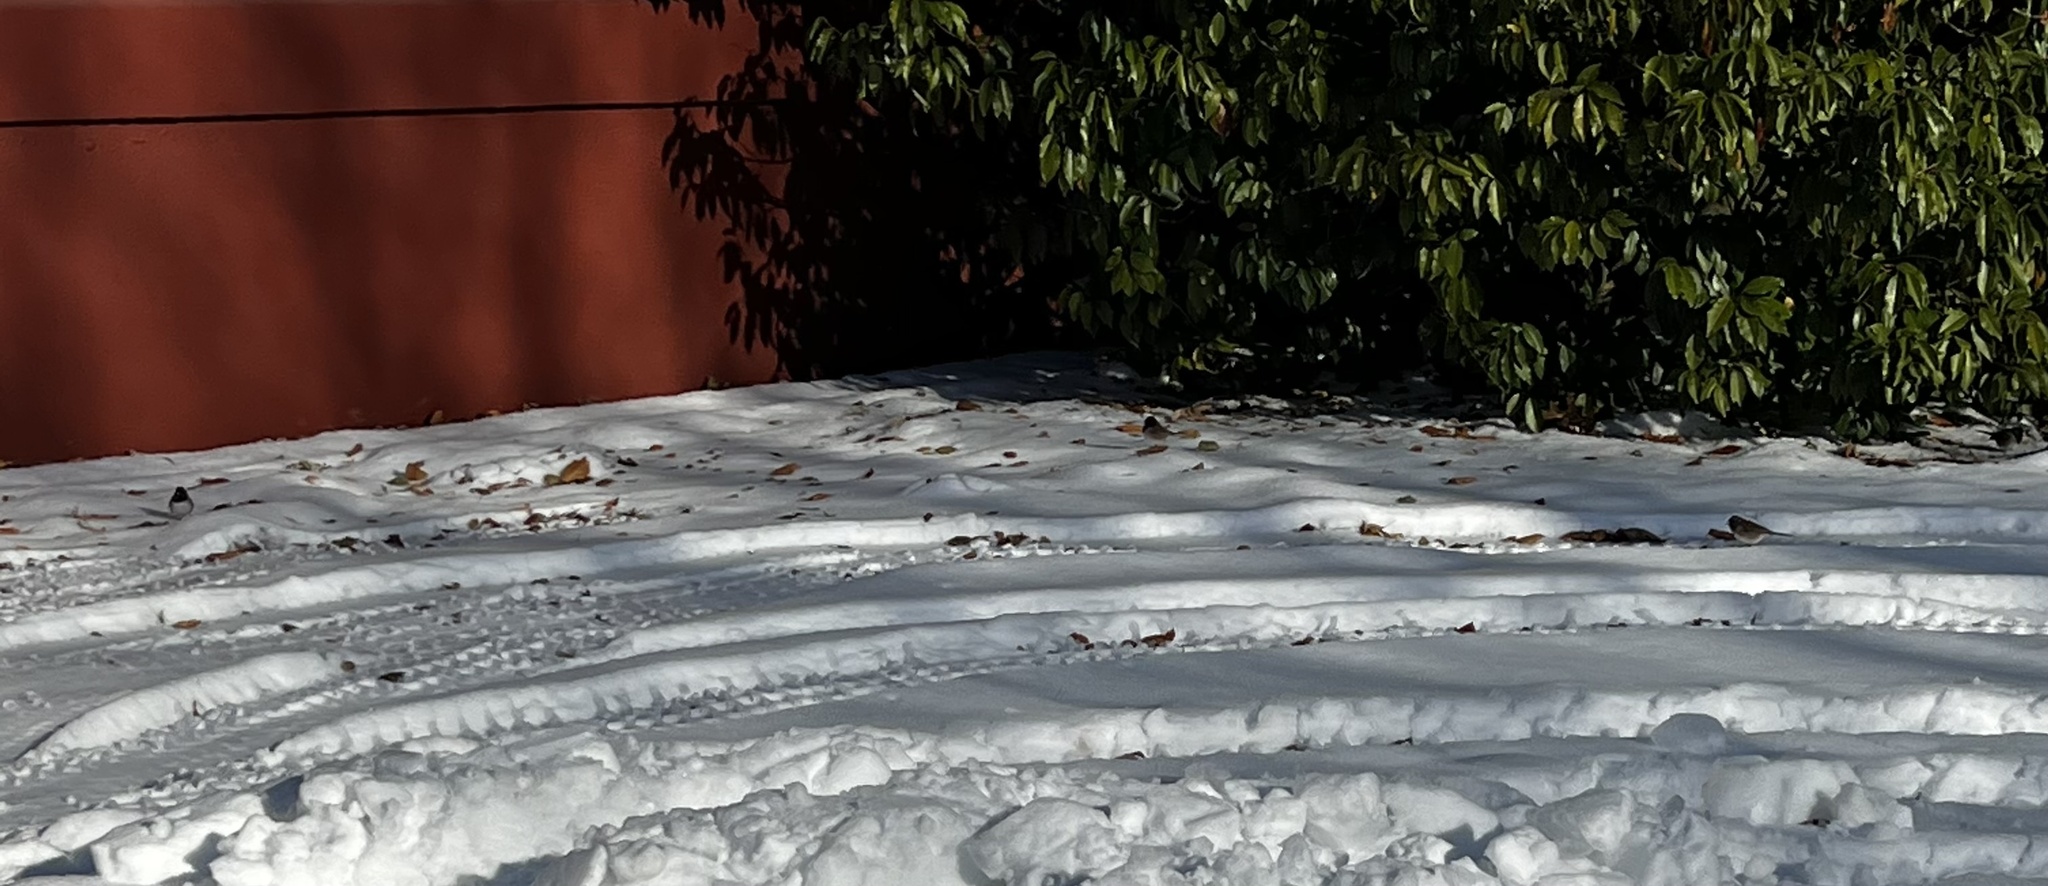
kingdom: Animalia
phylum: Chordata
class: Aves
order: Passeriformes
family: Passerellidae
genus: Junco
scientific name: Junco hyemalis
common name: Dark-eyed junco
